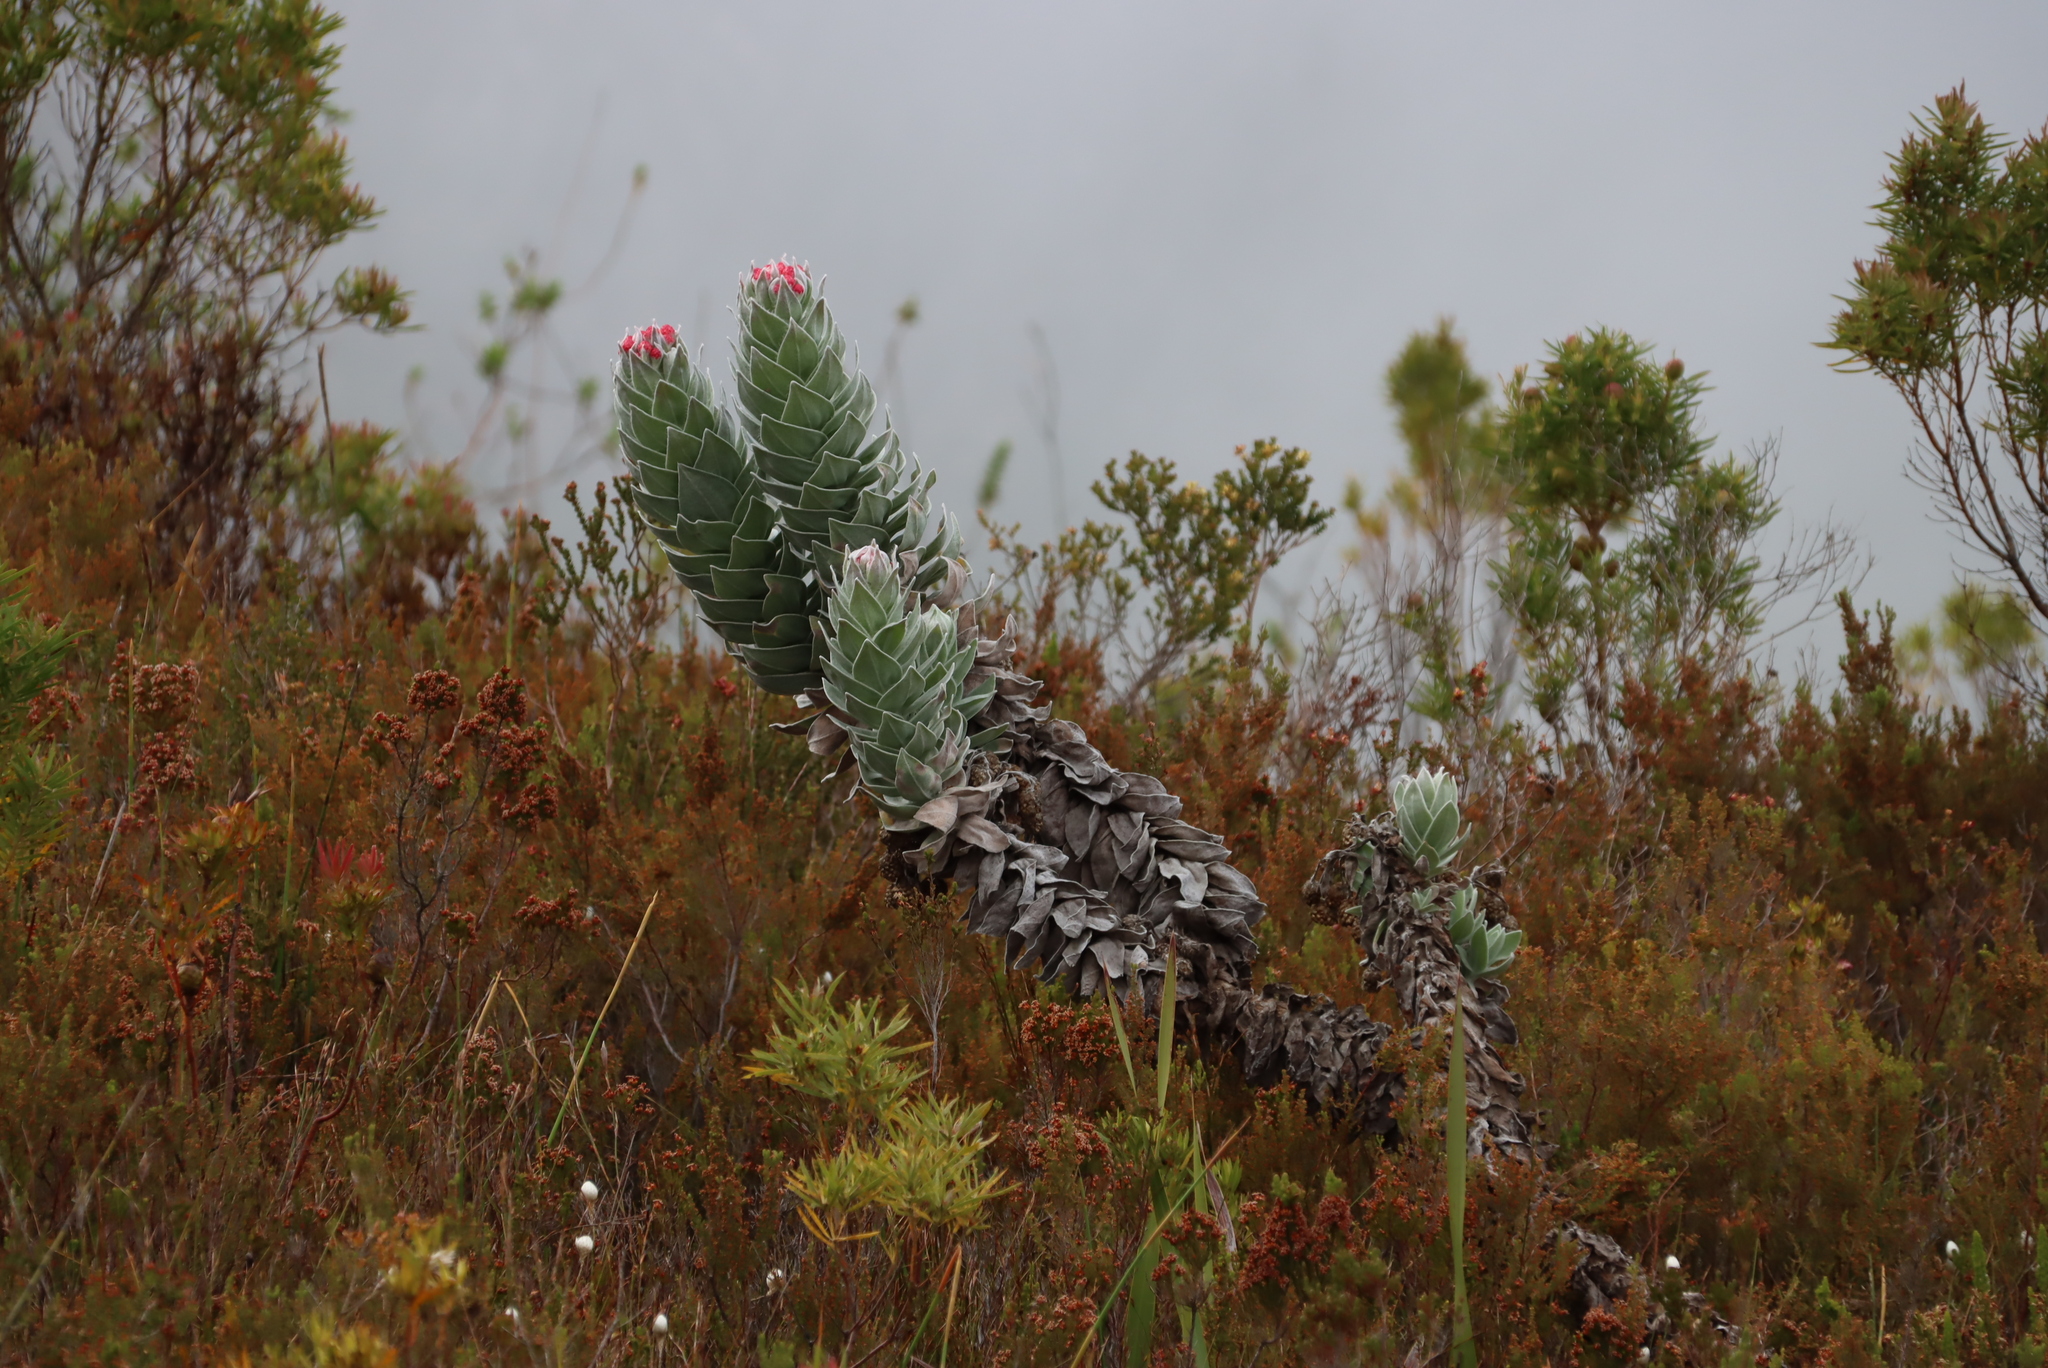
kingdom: Plantae
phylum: Tracheophyta
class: Magnoliopsida
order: Asterales
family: Asteraceae
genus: Syncarpha
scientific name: Syncarpha eximia
